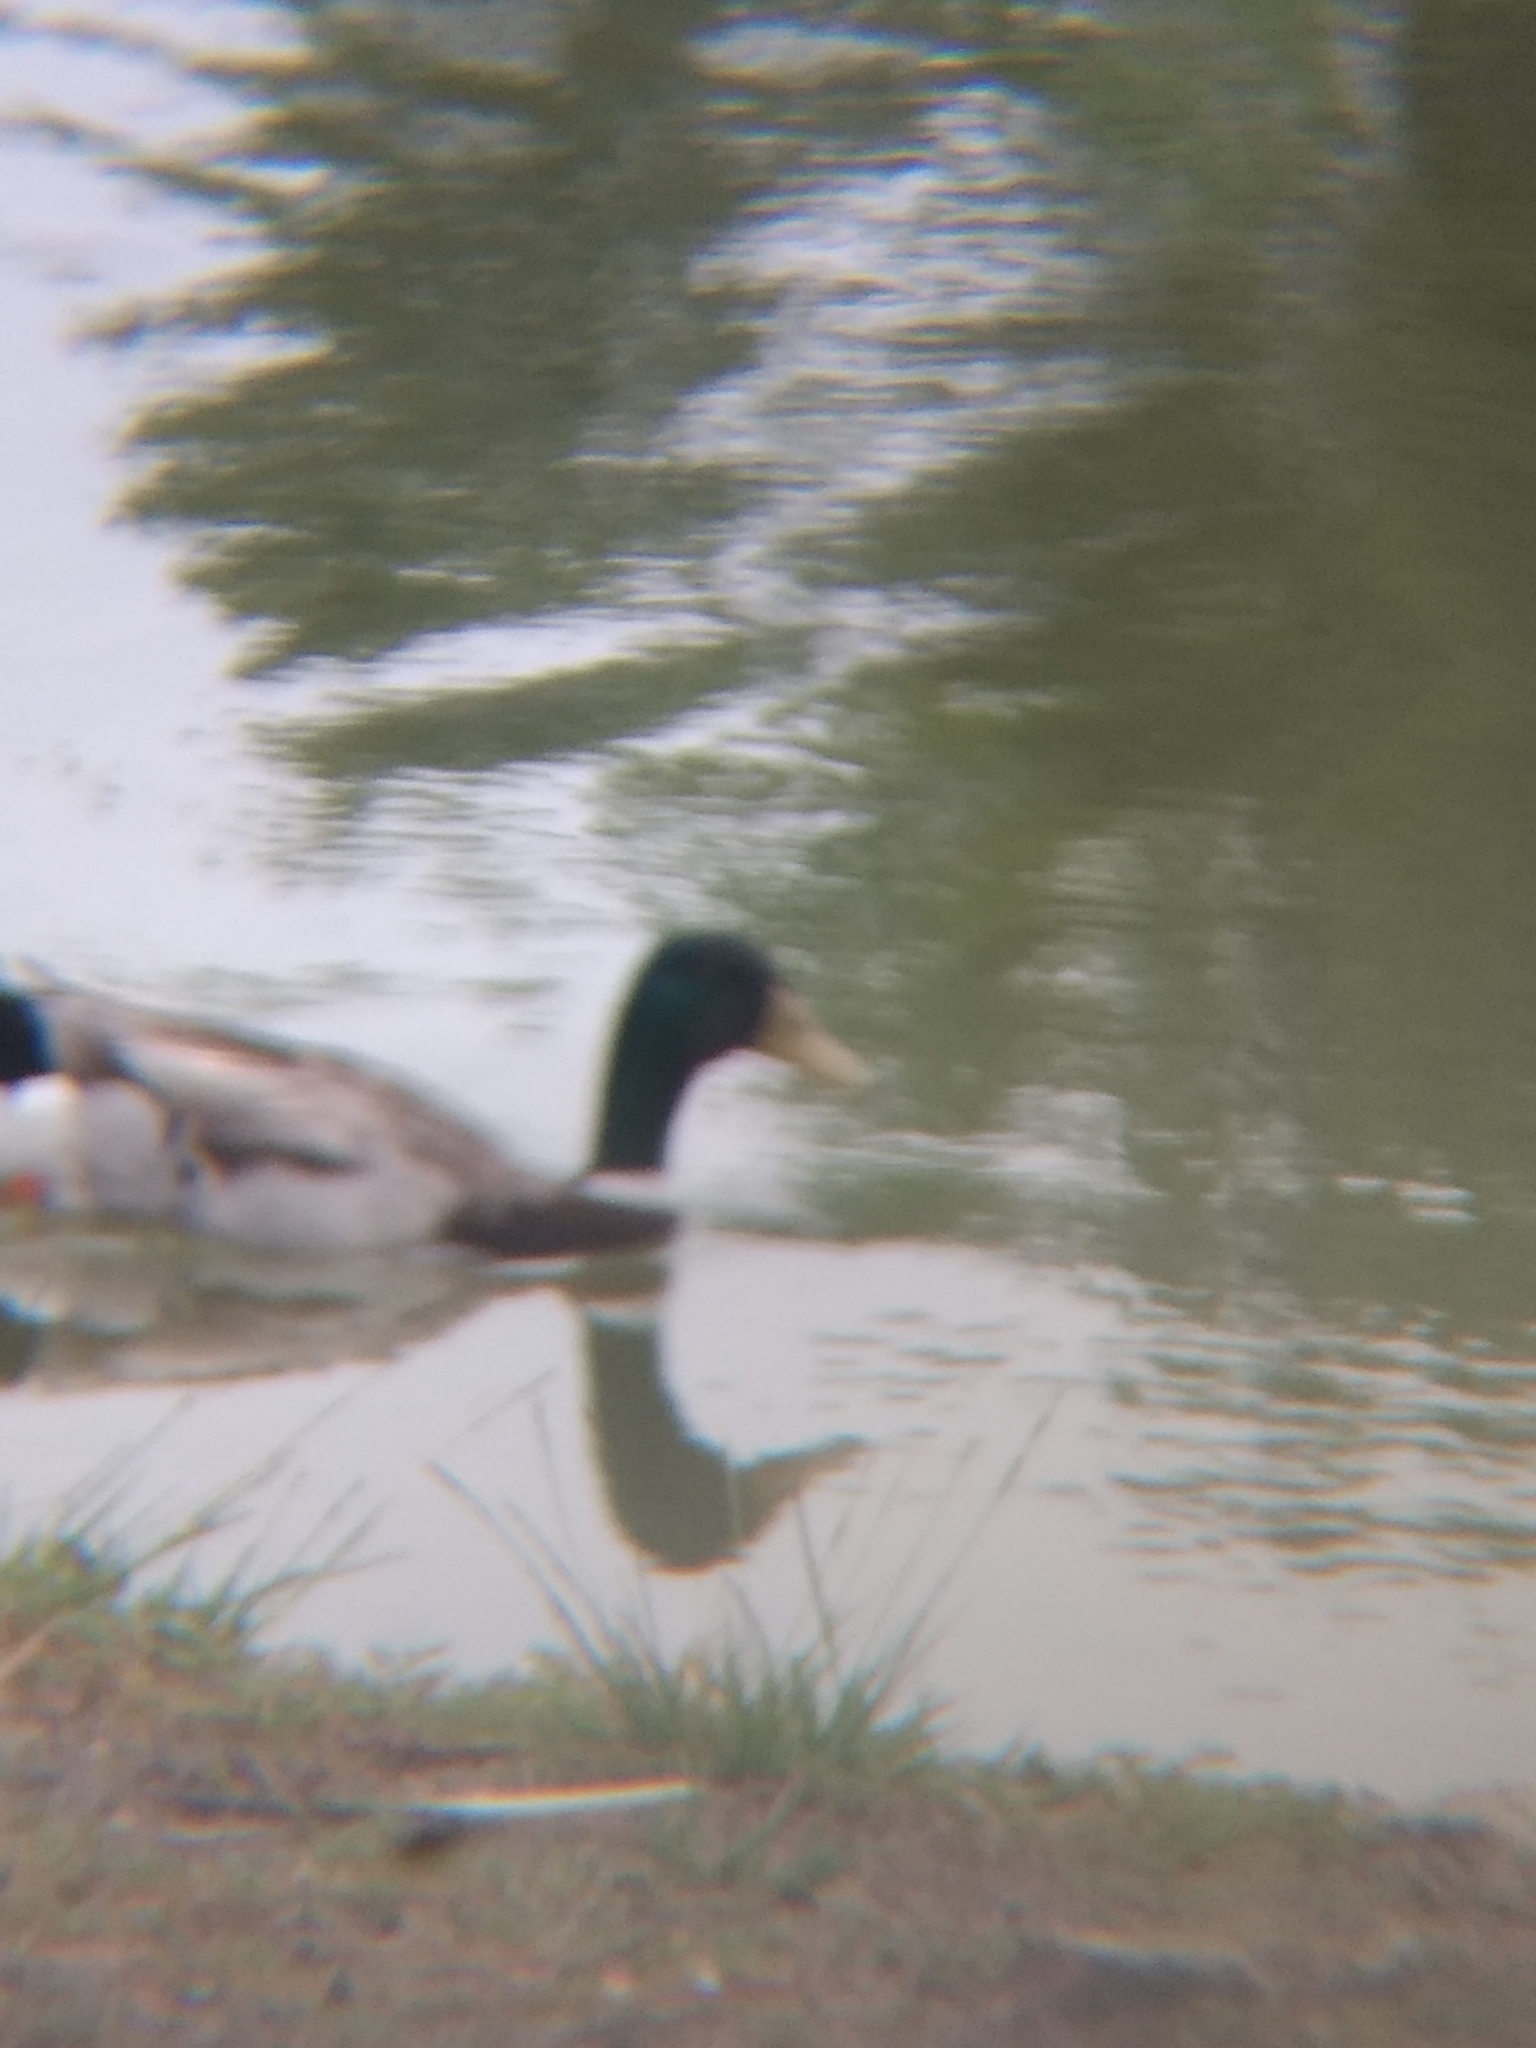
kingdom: Animalia
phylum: Chordata
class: Aves
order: Anseriformes
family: Anatidae
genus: Anas
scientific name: Anas platyrhynchos
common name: Mallard
